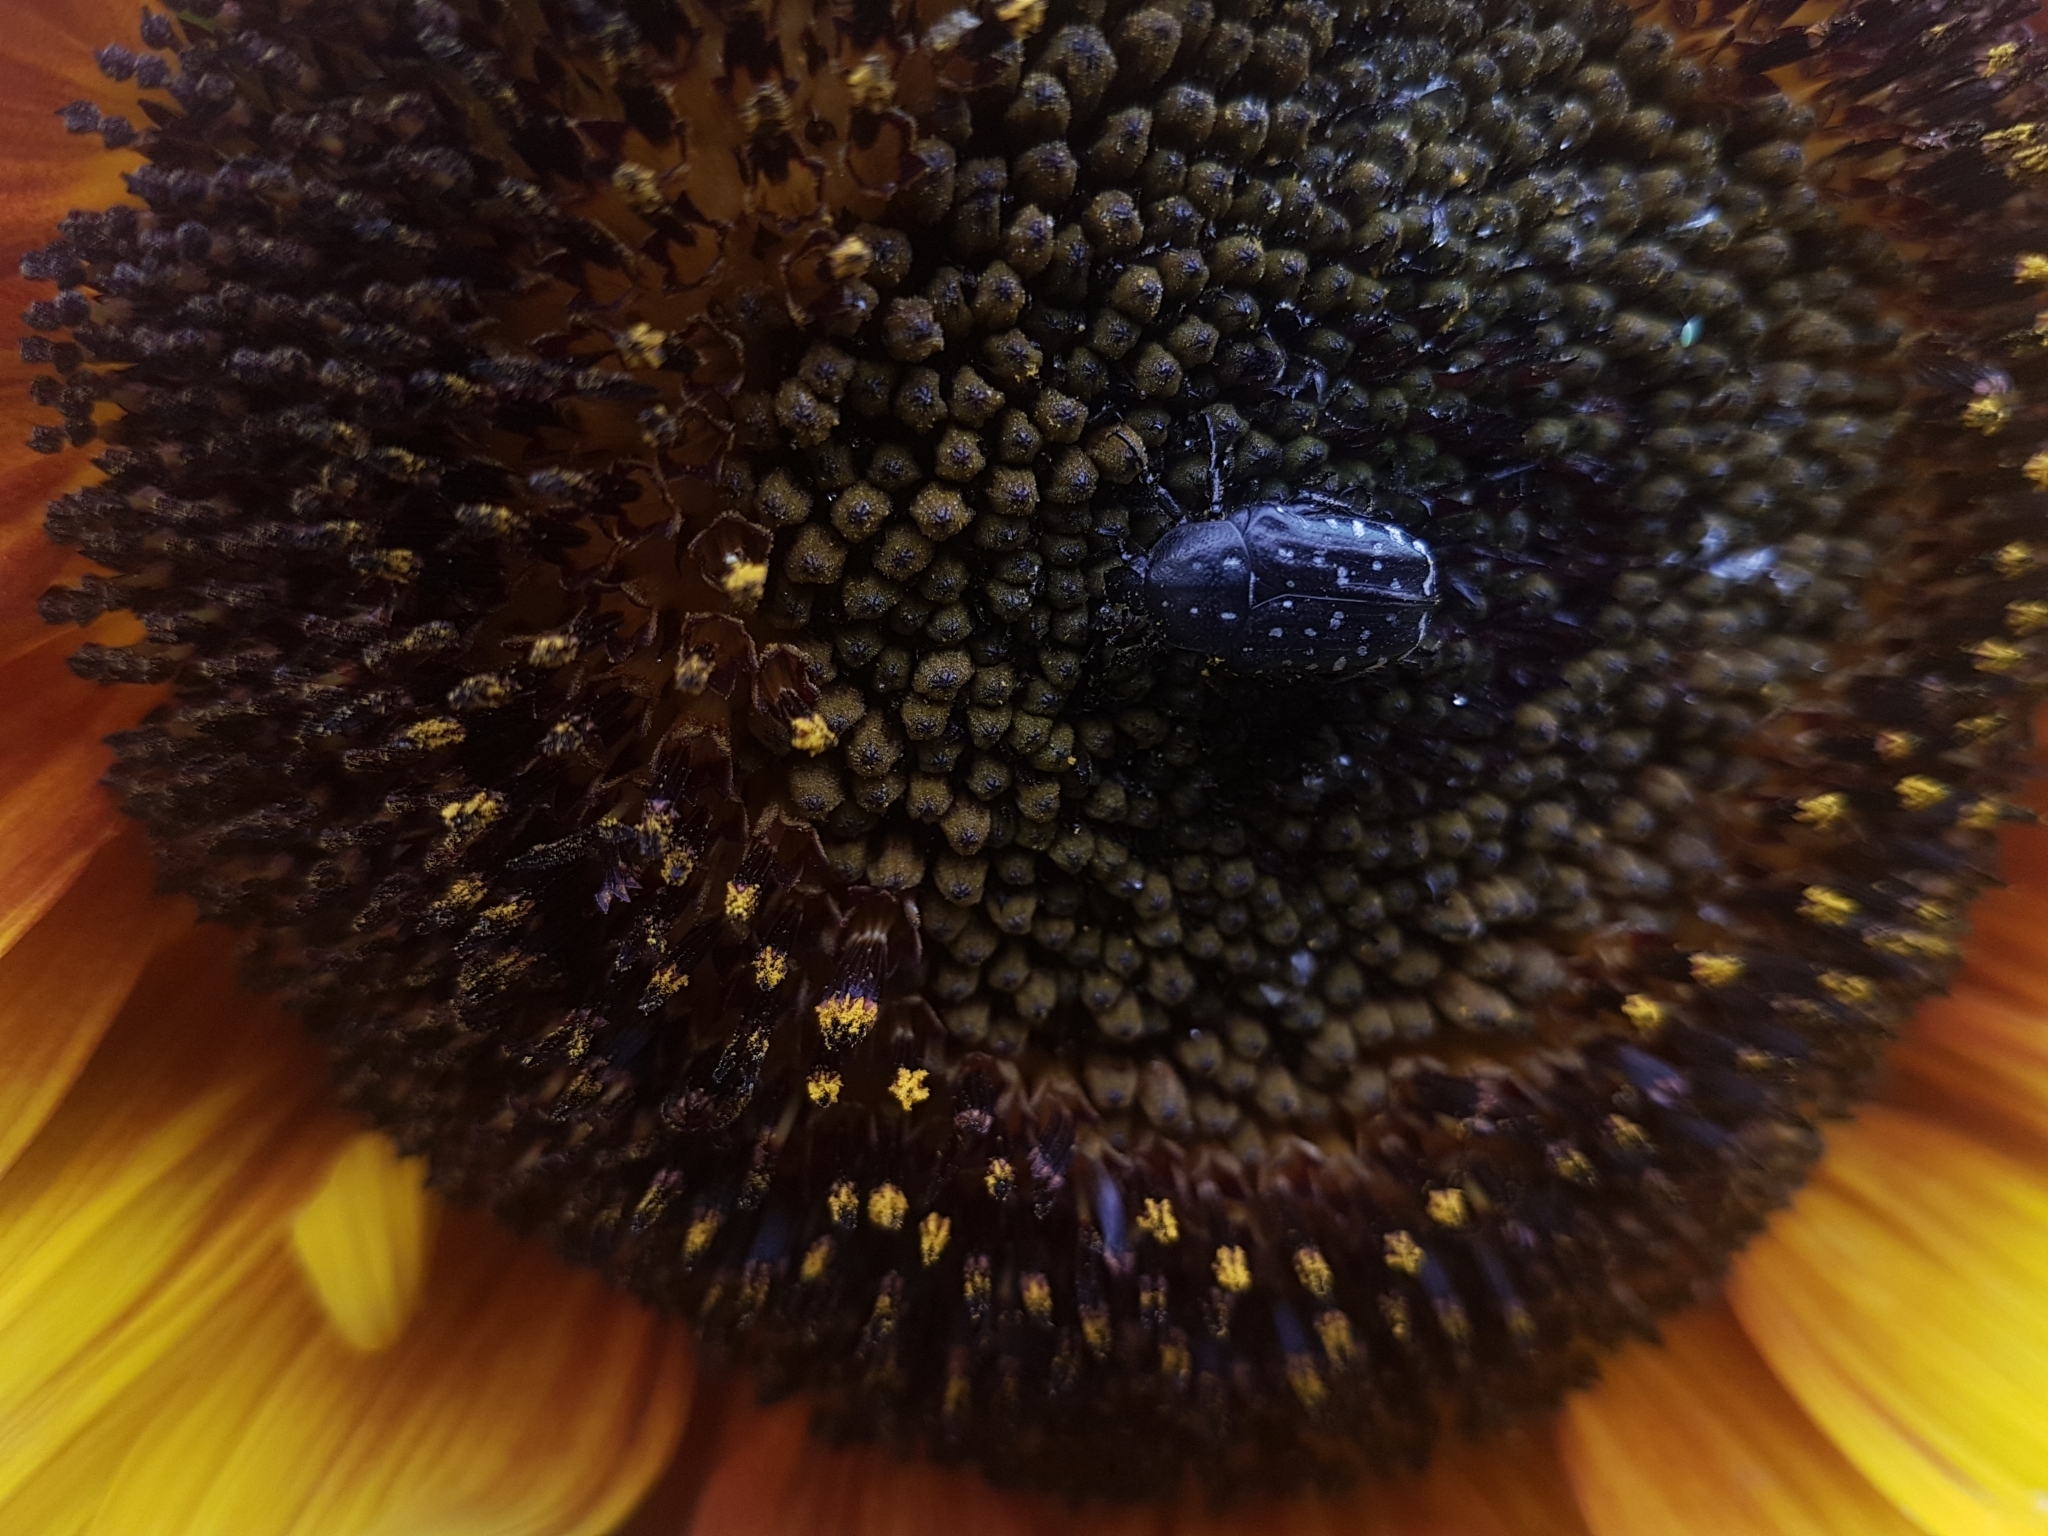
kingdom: Animalia
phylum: Arthropoda
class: Insecta
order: Coleoptera
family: Scarabaeidae
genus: Oxythyrea
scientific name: Oxythyrea funesta
